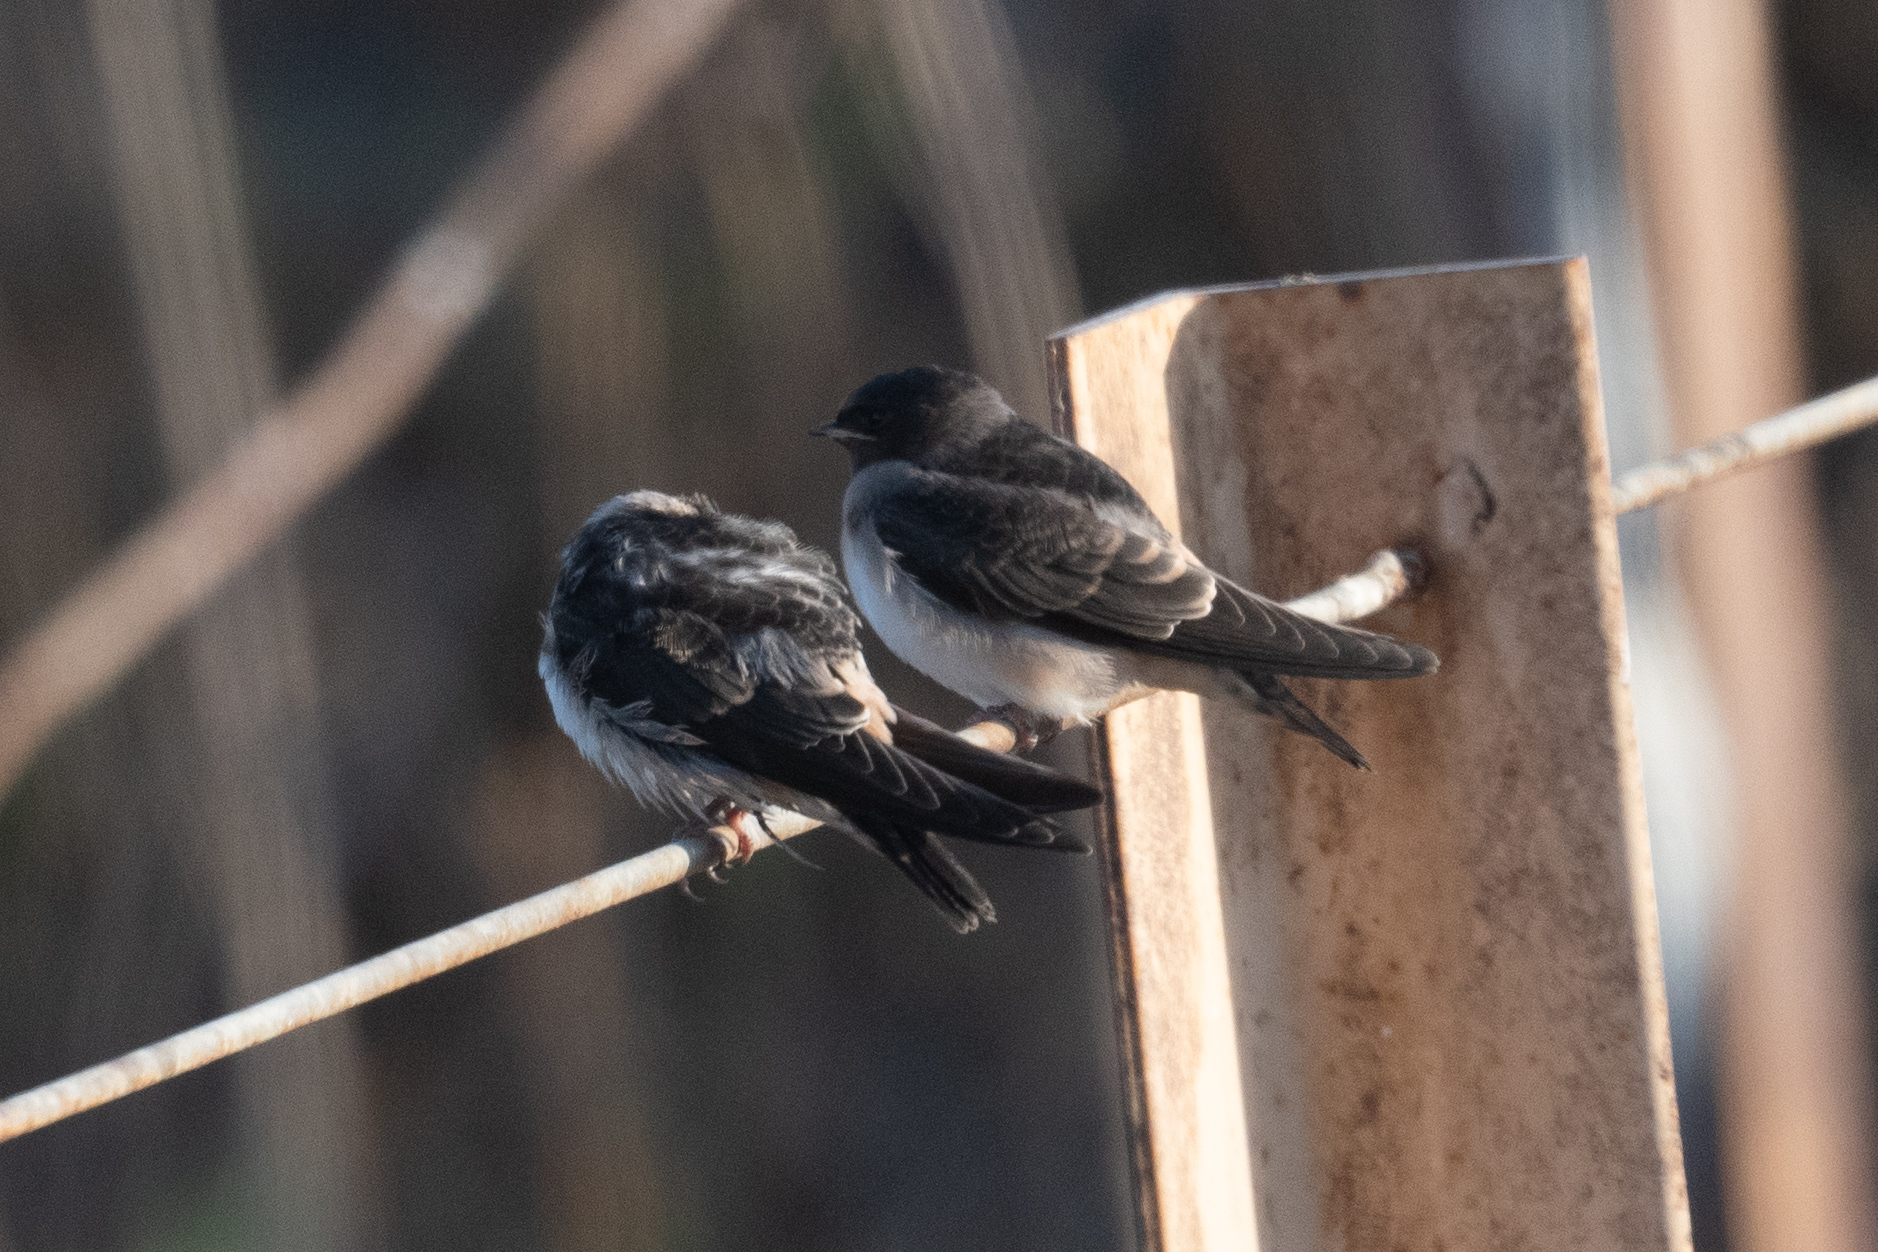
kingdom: Animalia
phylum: Chordata
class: Aves
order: Passeriformes
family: Hirundinidae
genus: Petrochelidon
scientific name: Petrochelidon pyrrhonota
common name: American cliff swallow
